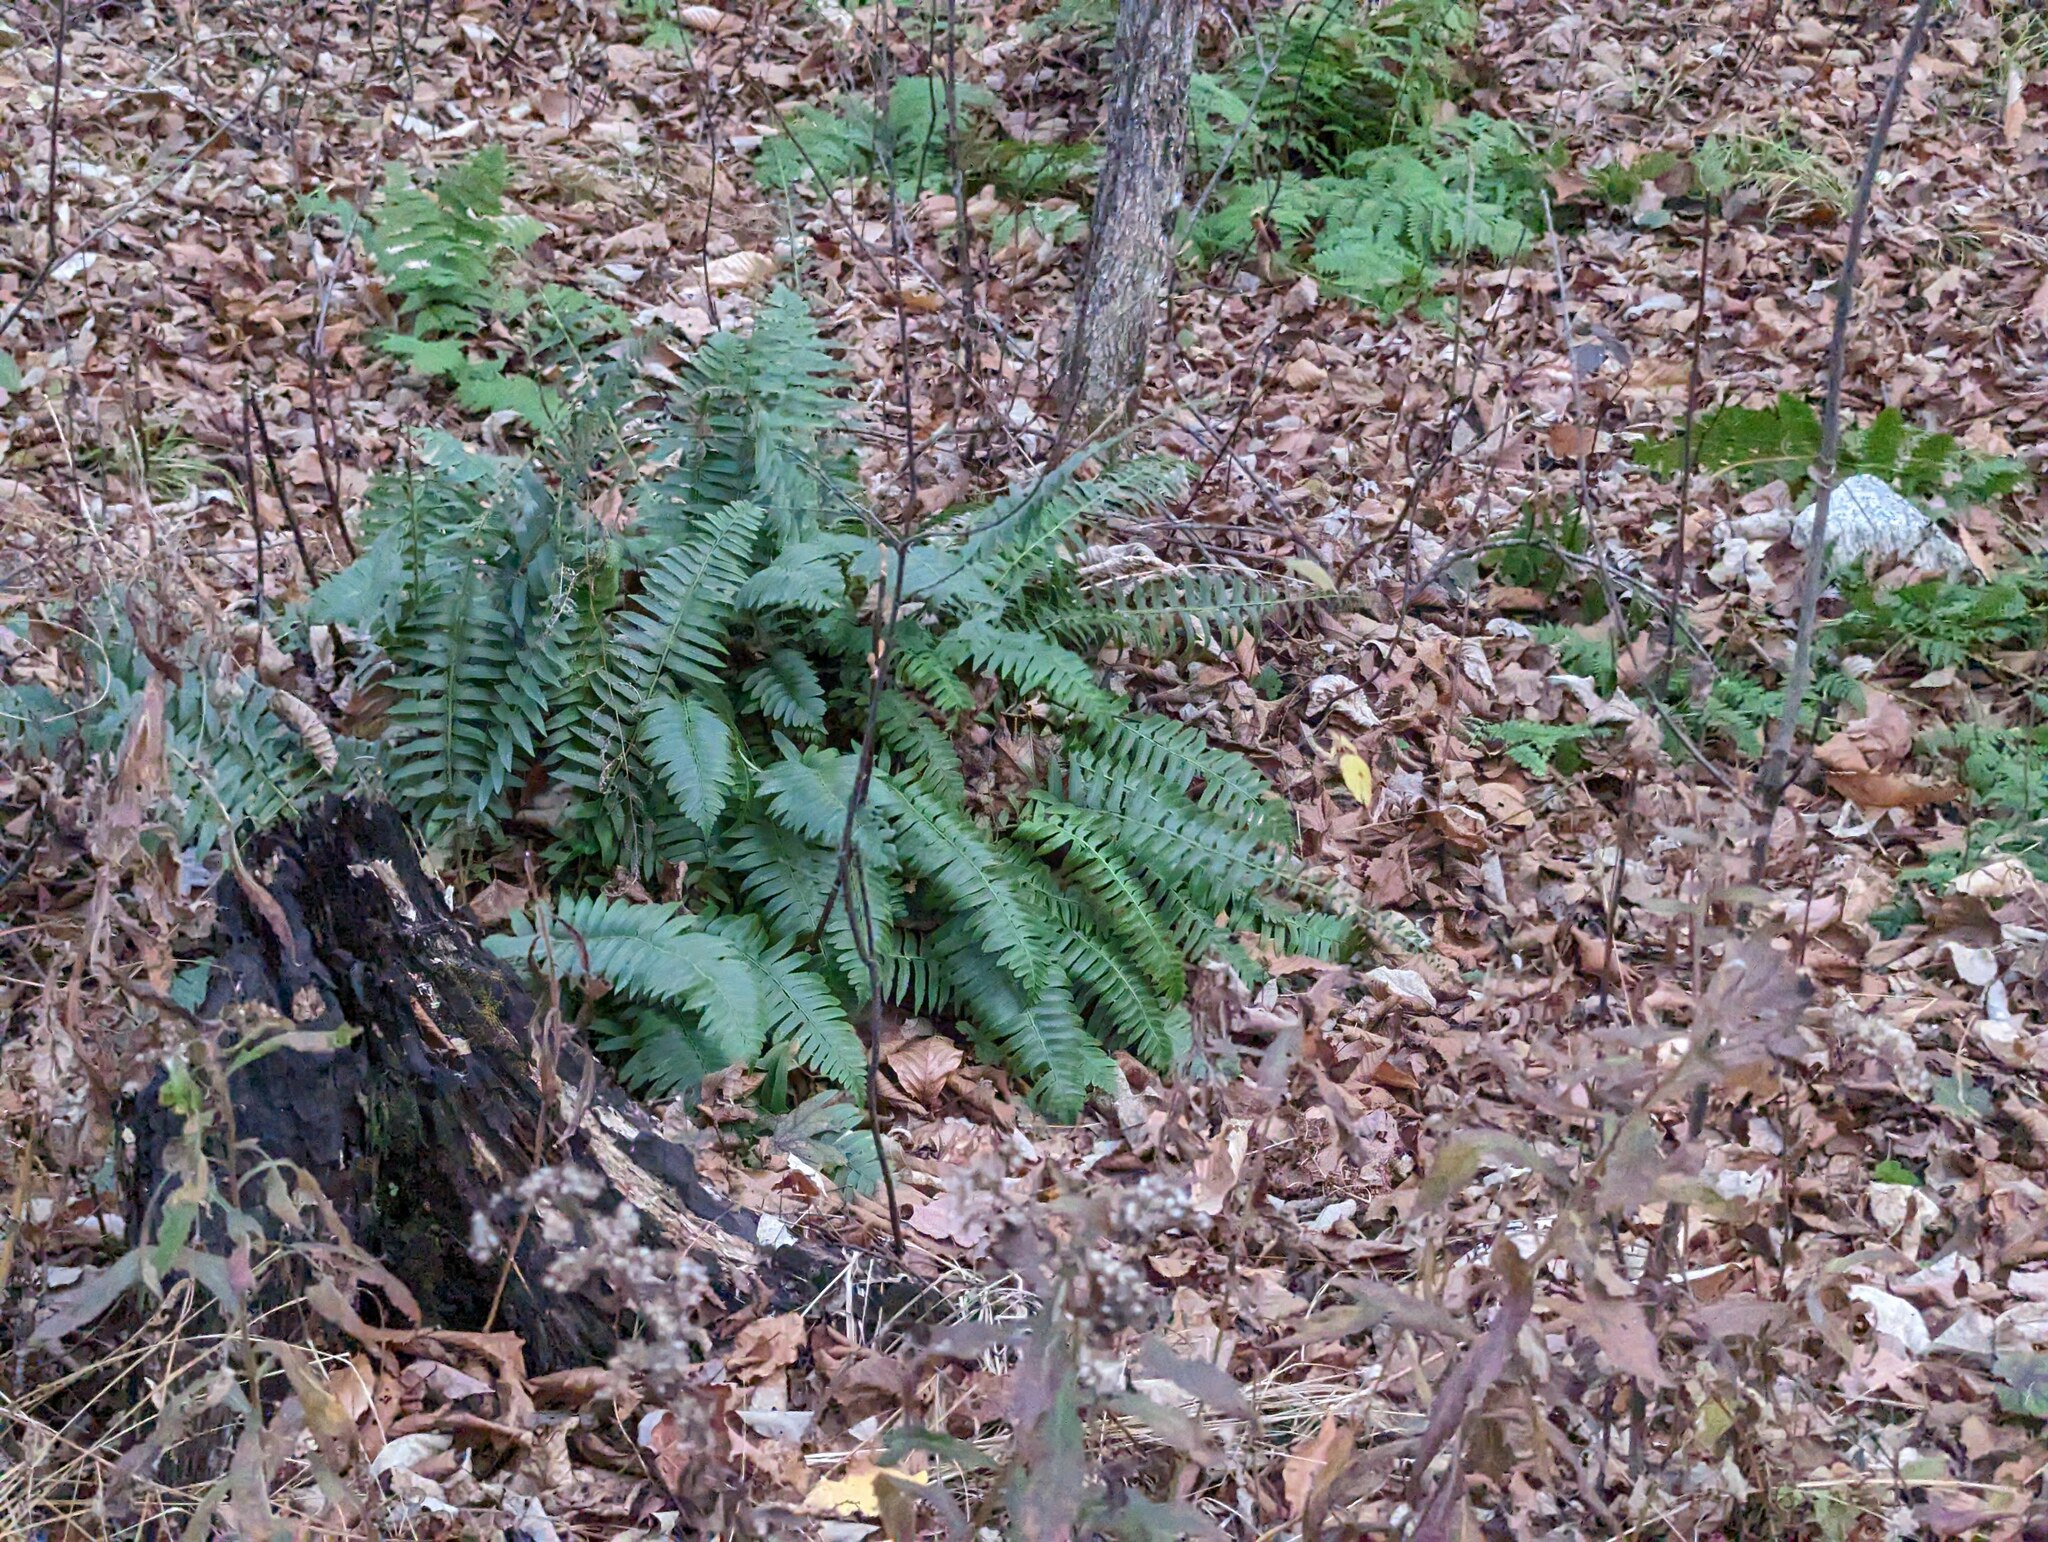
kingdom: Plantae
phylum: Tracheophyta
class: Polypodiopsida
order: Polypodiales
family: Dryopteridaceae
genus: Polystichum
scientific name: Polystichum acrostichoides
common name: Christmas fern
